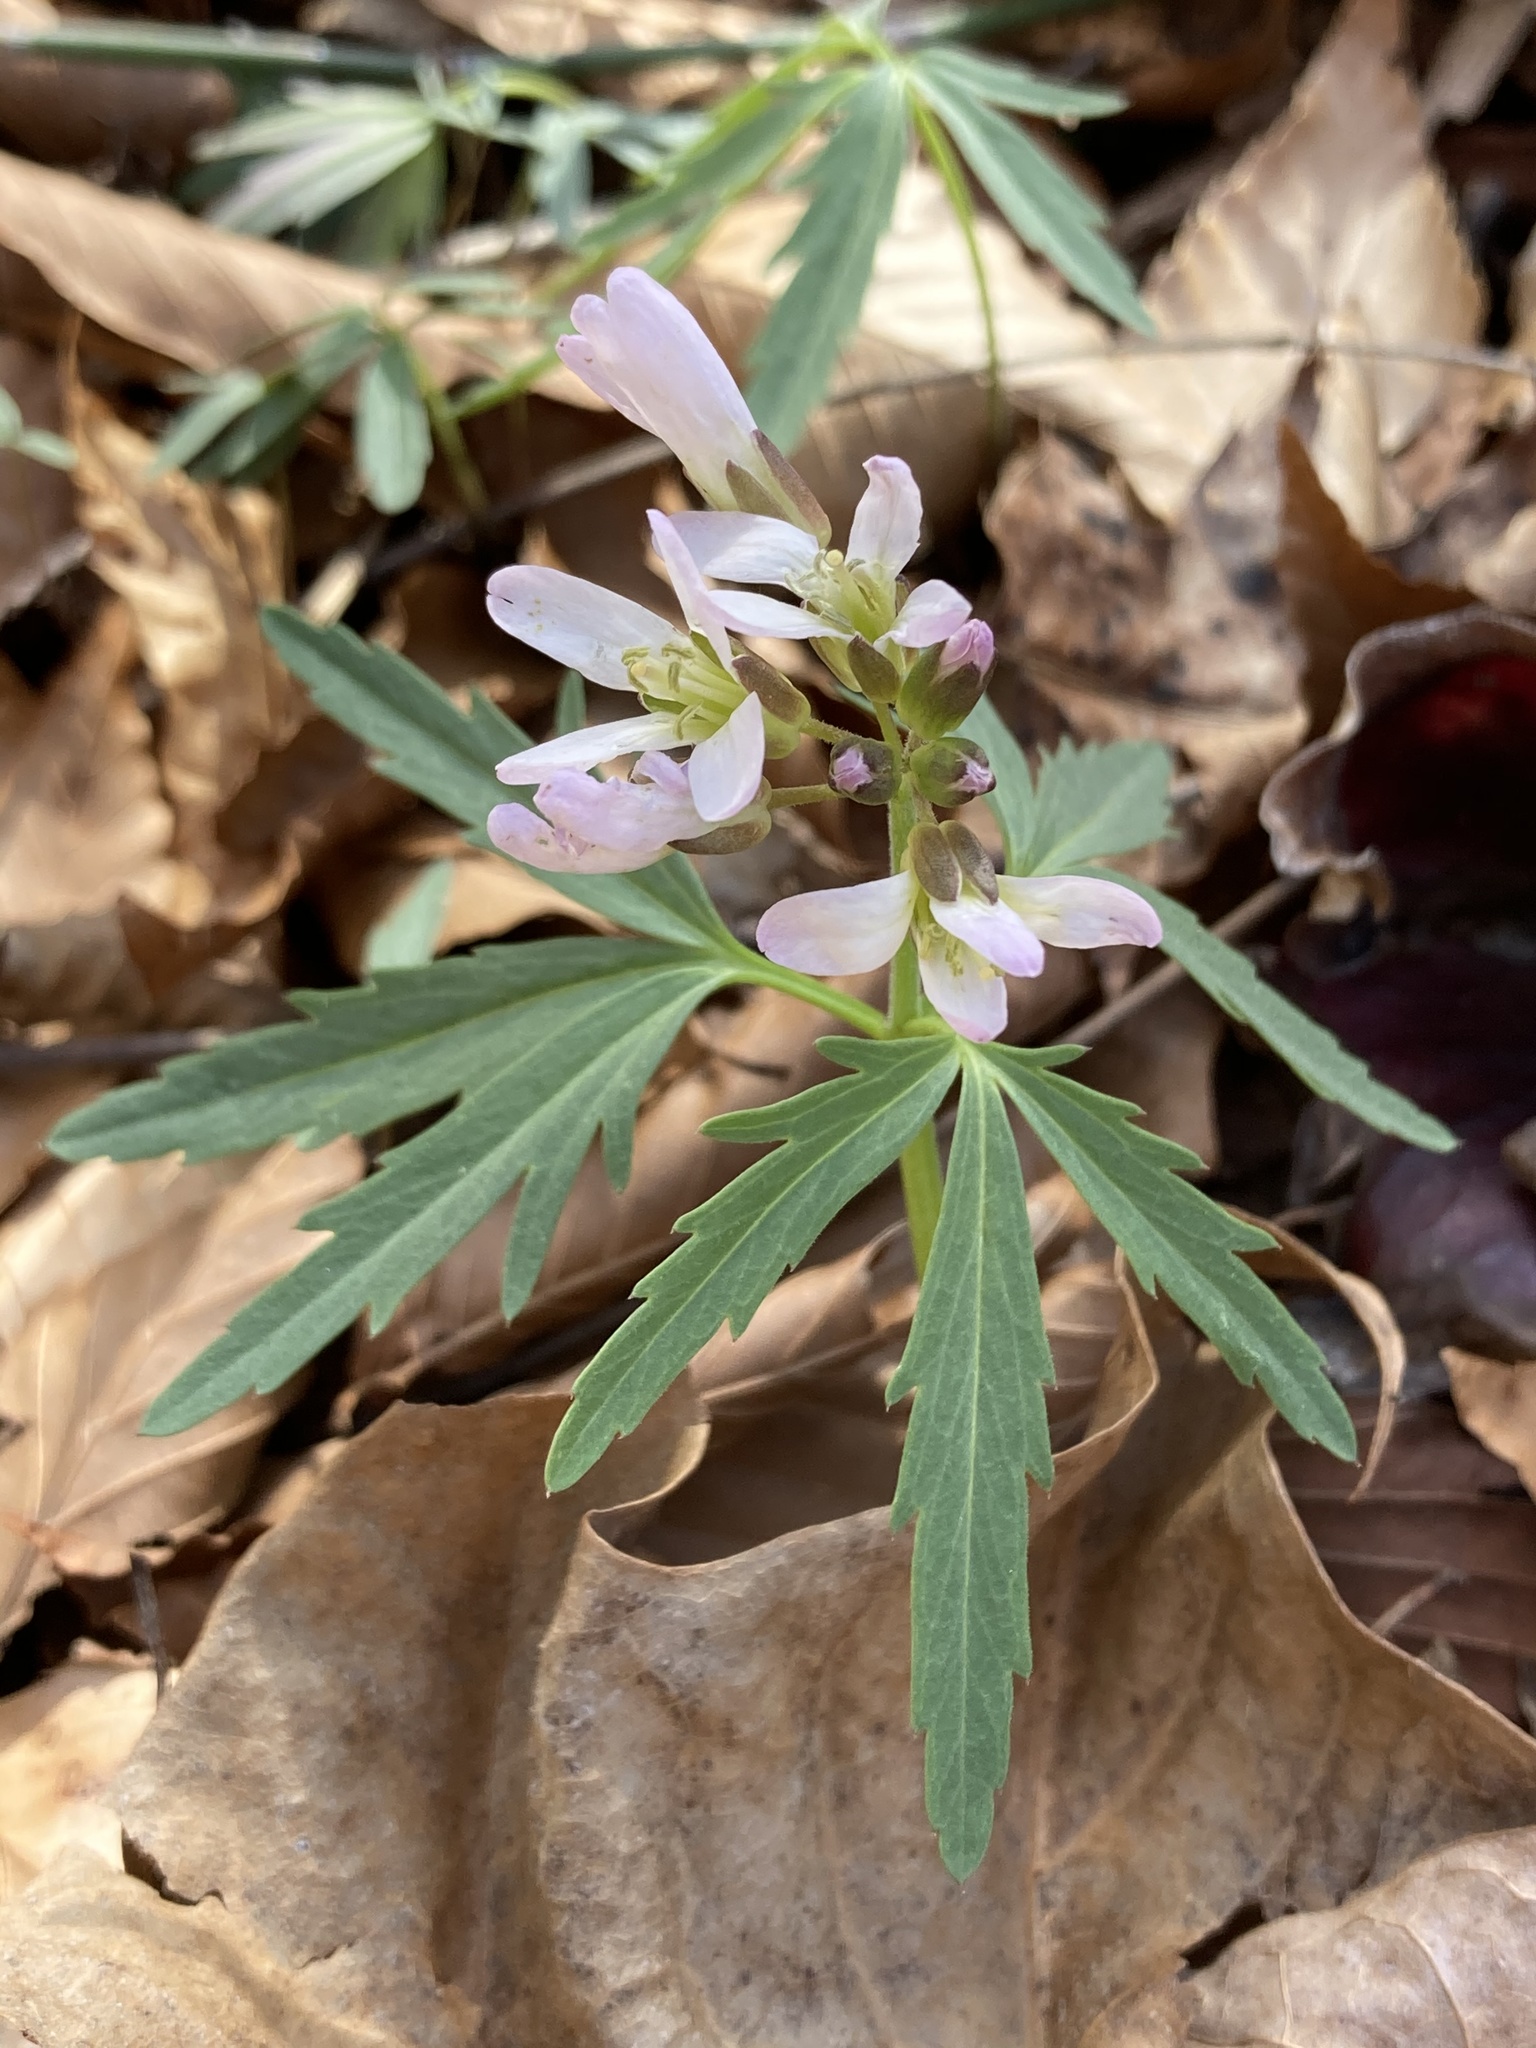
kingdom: Plantae
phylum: Tracheophyta
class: Magnoliopsida
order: Brassicales
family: Brassicaceae
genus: Cardamine
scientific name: Cardamine concatenata
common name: Cut-leaf toothcup
